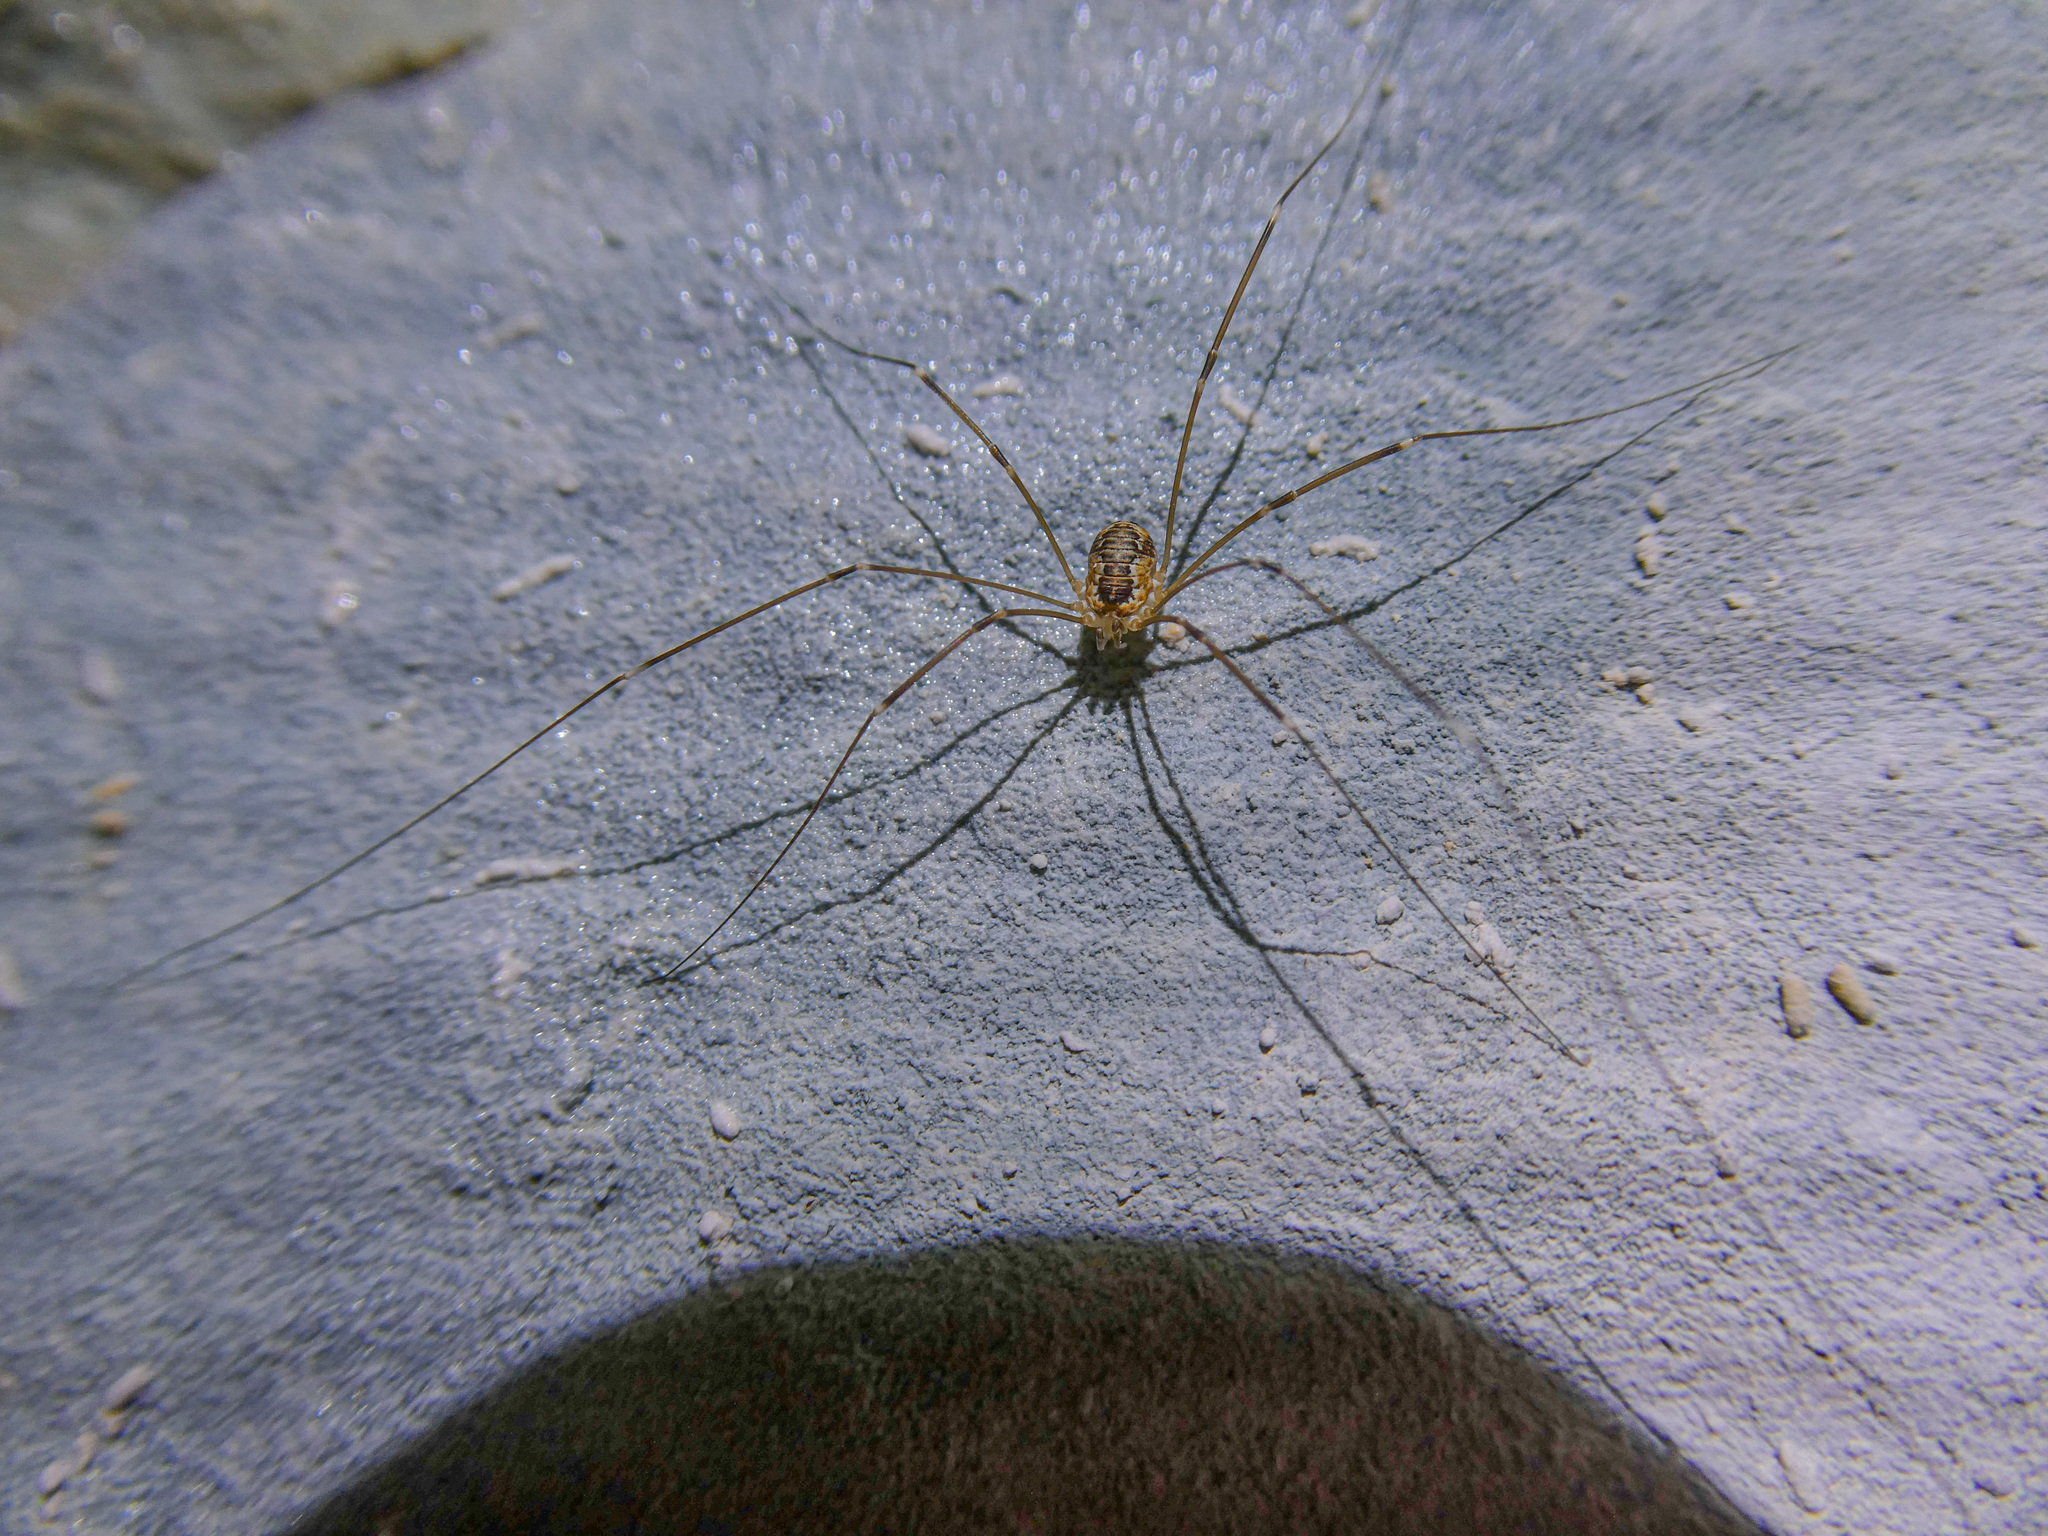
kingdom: Animalia
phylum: Arthropoda
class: Arachnida
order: Opiliones
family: Sclerosomatidae
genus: Leiobunum
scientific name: Leiobunum limbatum
